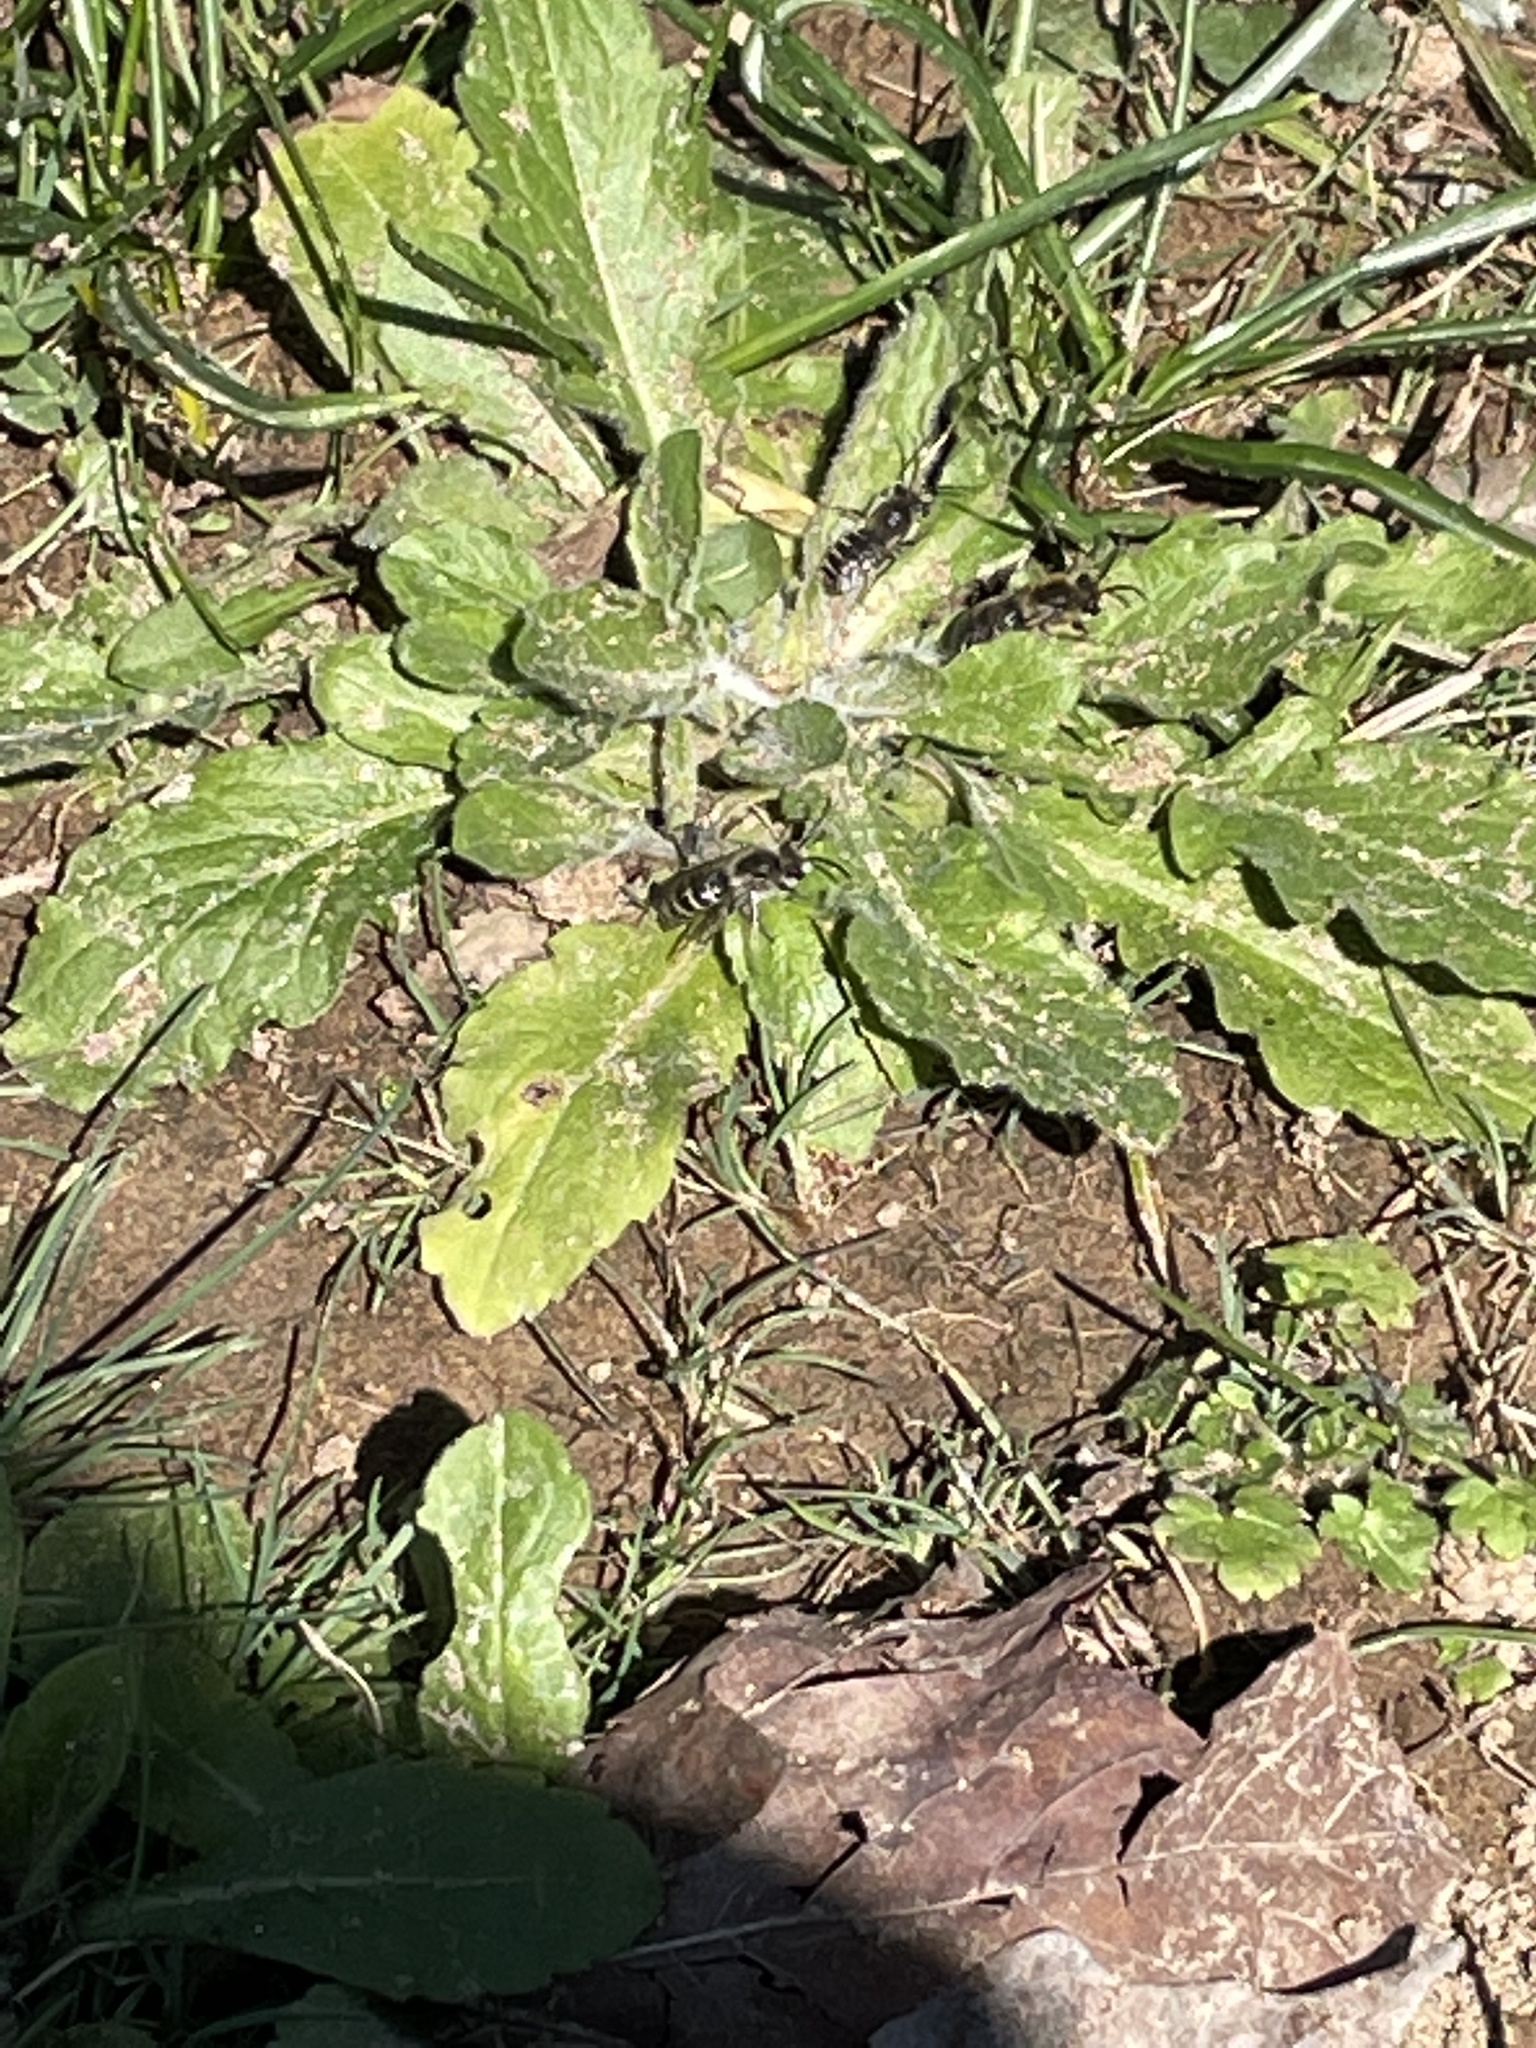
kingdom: Animalia
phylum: Arthropoda
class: Insecta
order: Hymenoptera
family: Colletidae
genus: Colletes
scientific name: Colletes inaequalis
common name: Unequal cellophane bee
